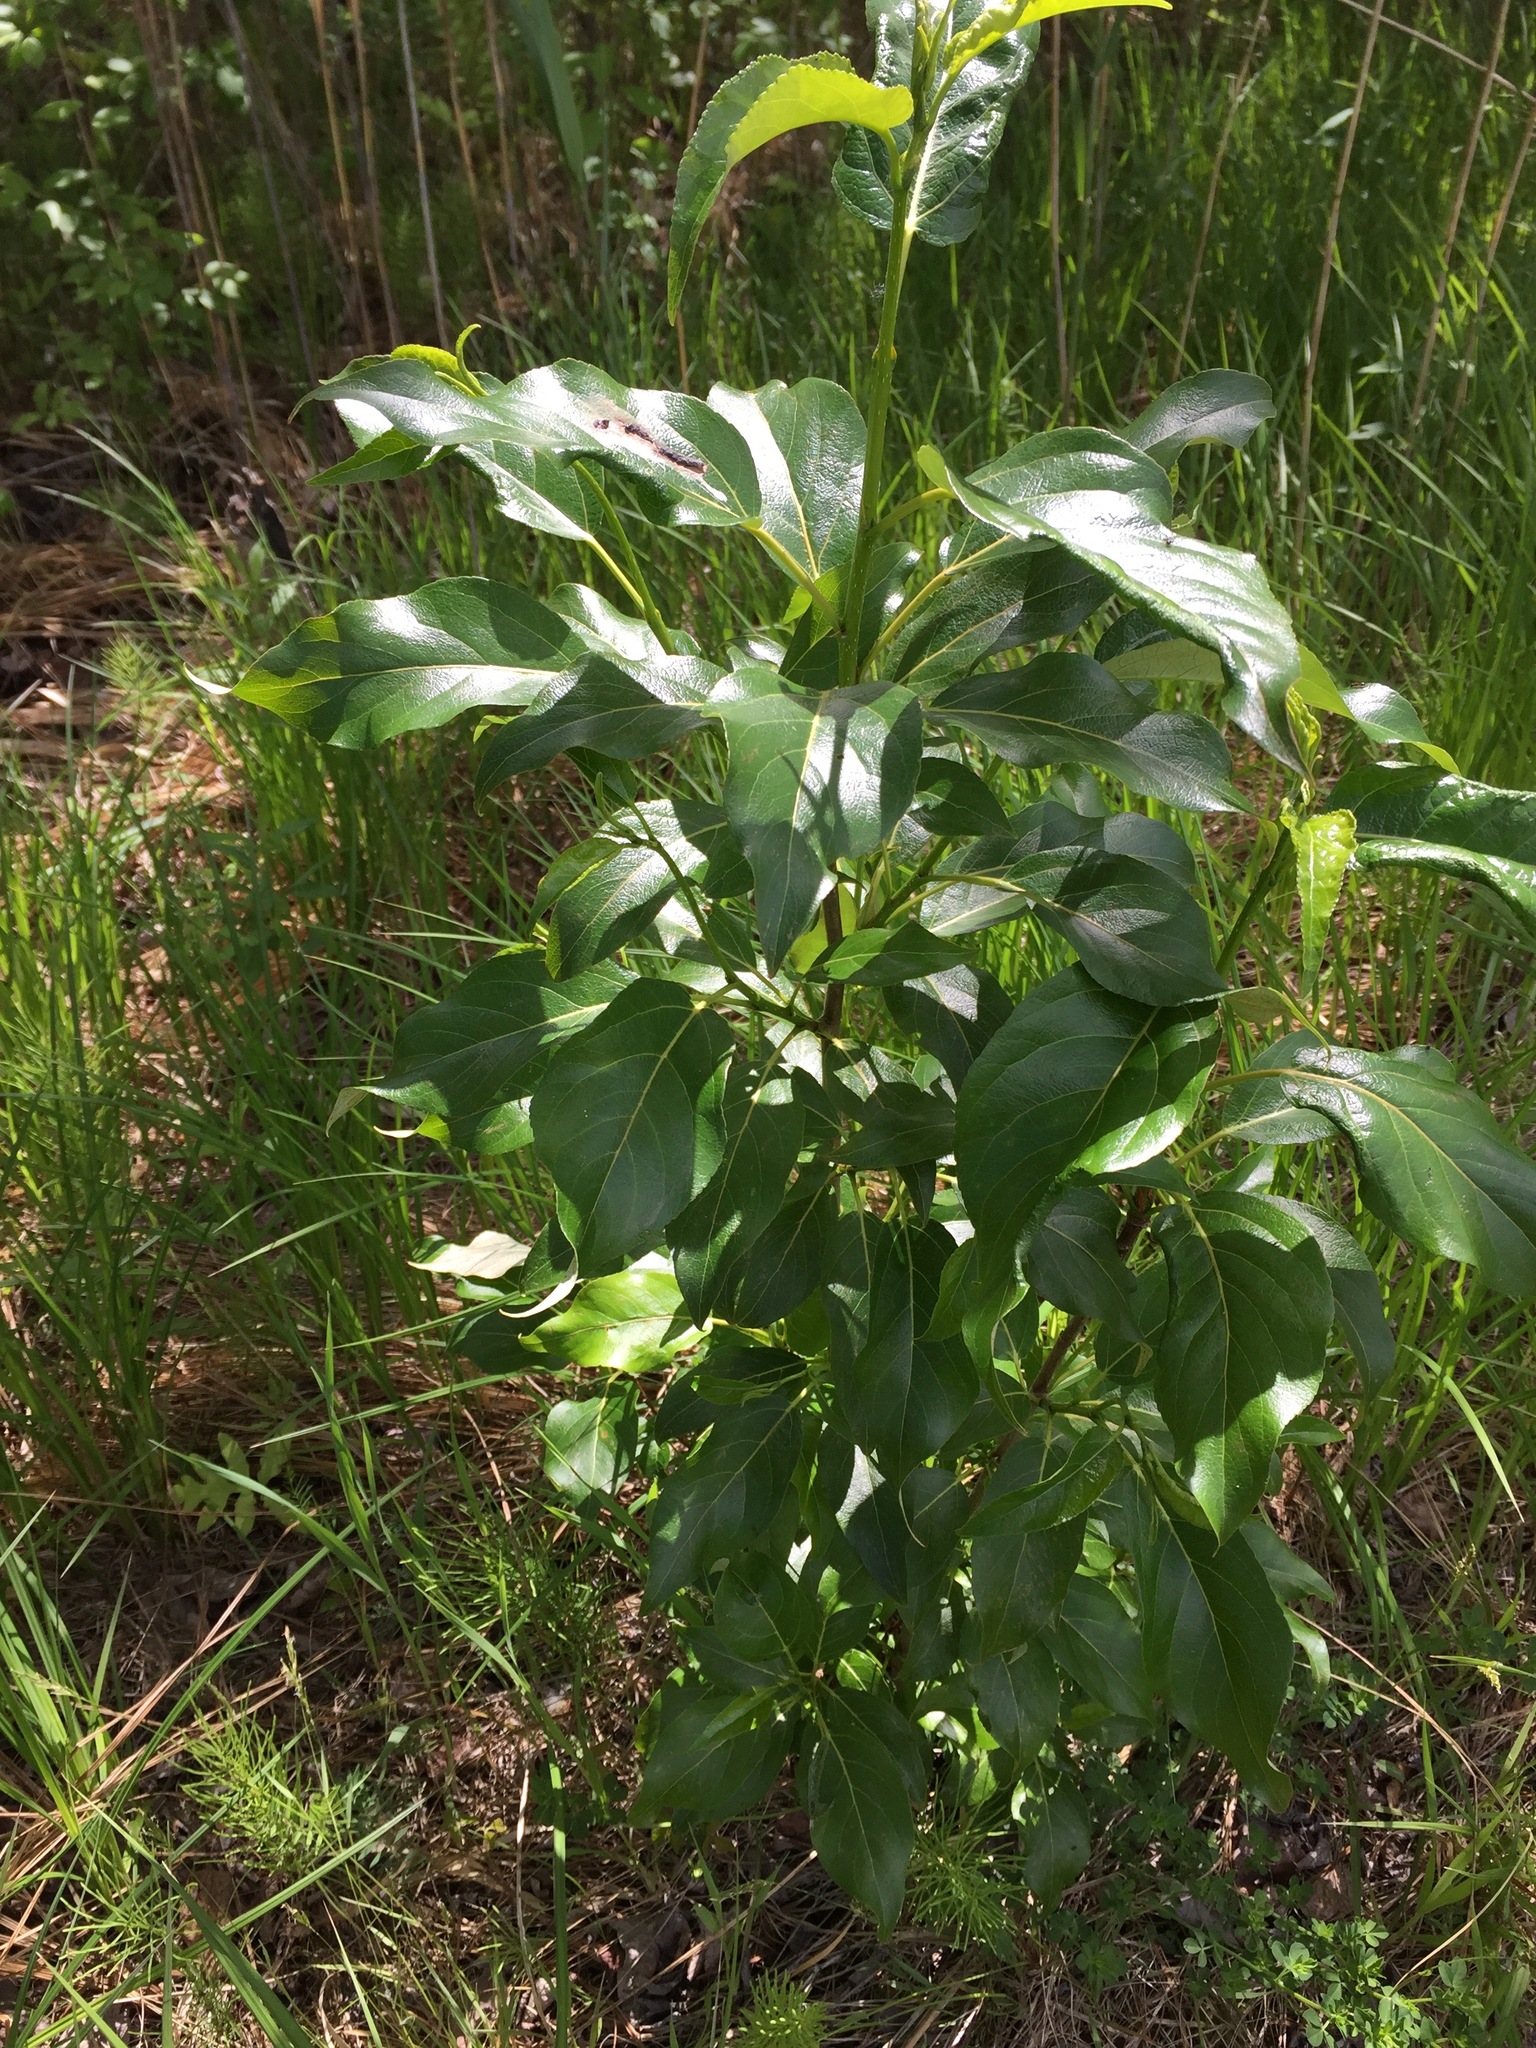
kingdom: Plantae
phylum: Tracheophyta
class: Magnoliopsida
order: Malpighiales
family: Salicaceae
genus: Populus
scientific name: Populus balsamifera
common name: Balsam poplar
